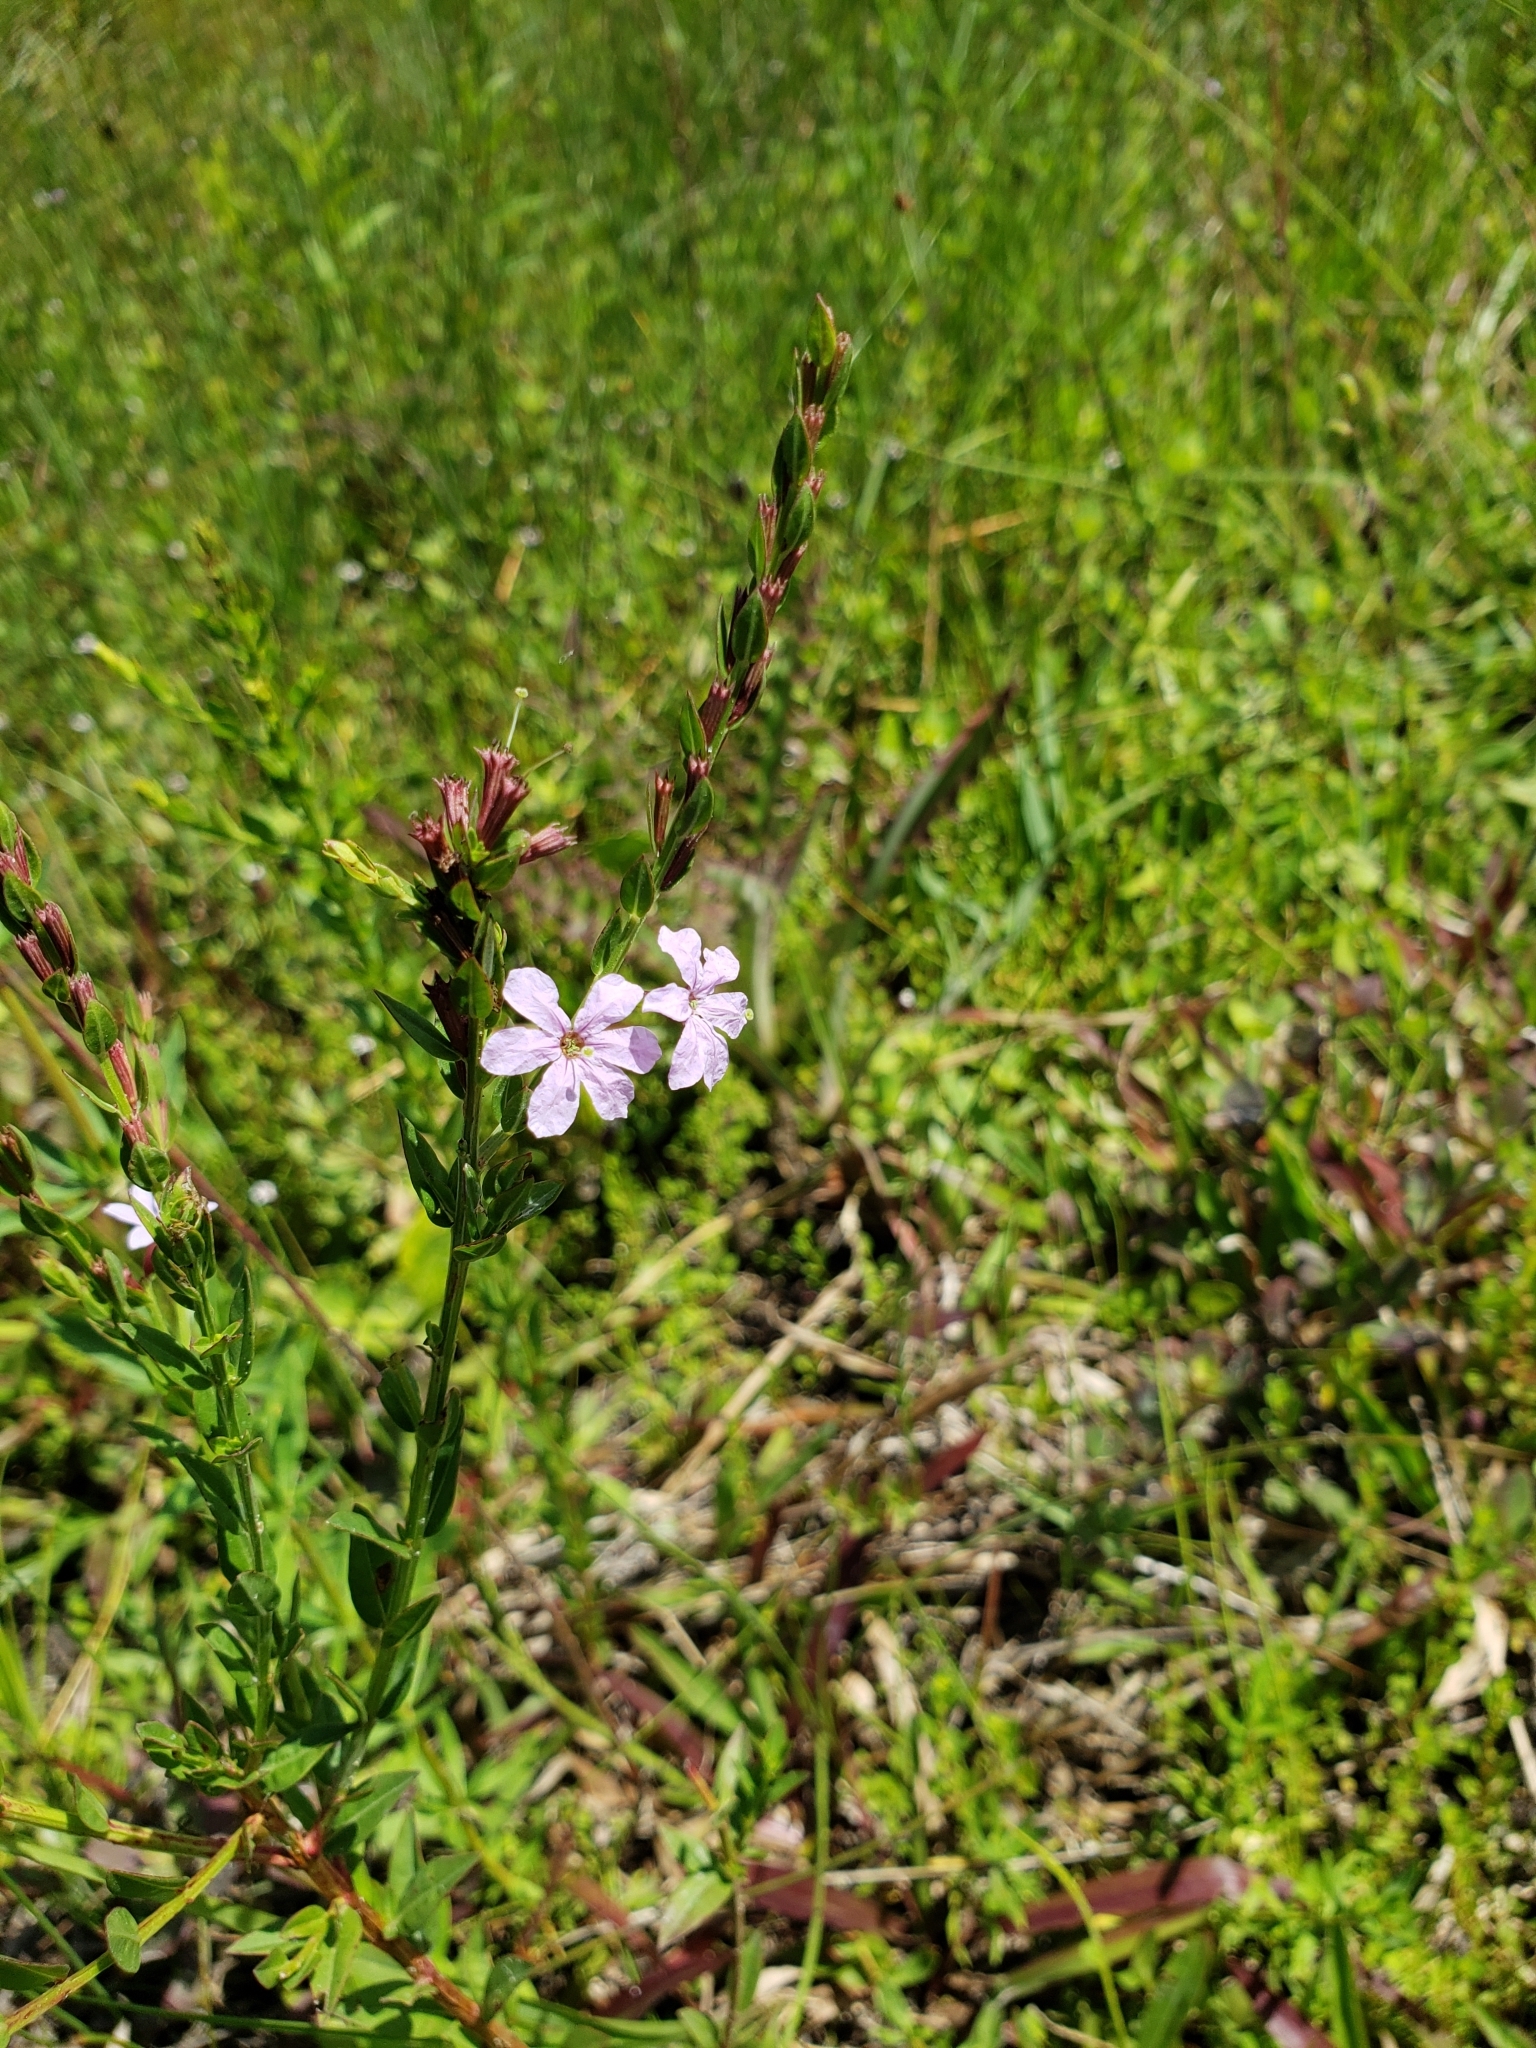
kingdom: Plantae
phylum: Tracheophyta
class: Magnoliopsida
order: Myrtales
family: Lythraceae
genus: Lythrum
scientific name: Lythrum alatum
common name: Winged loosestrife
